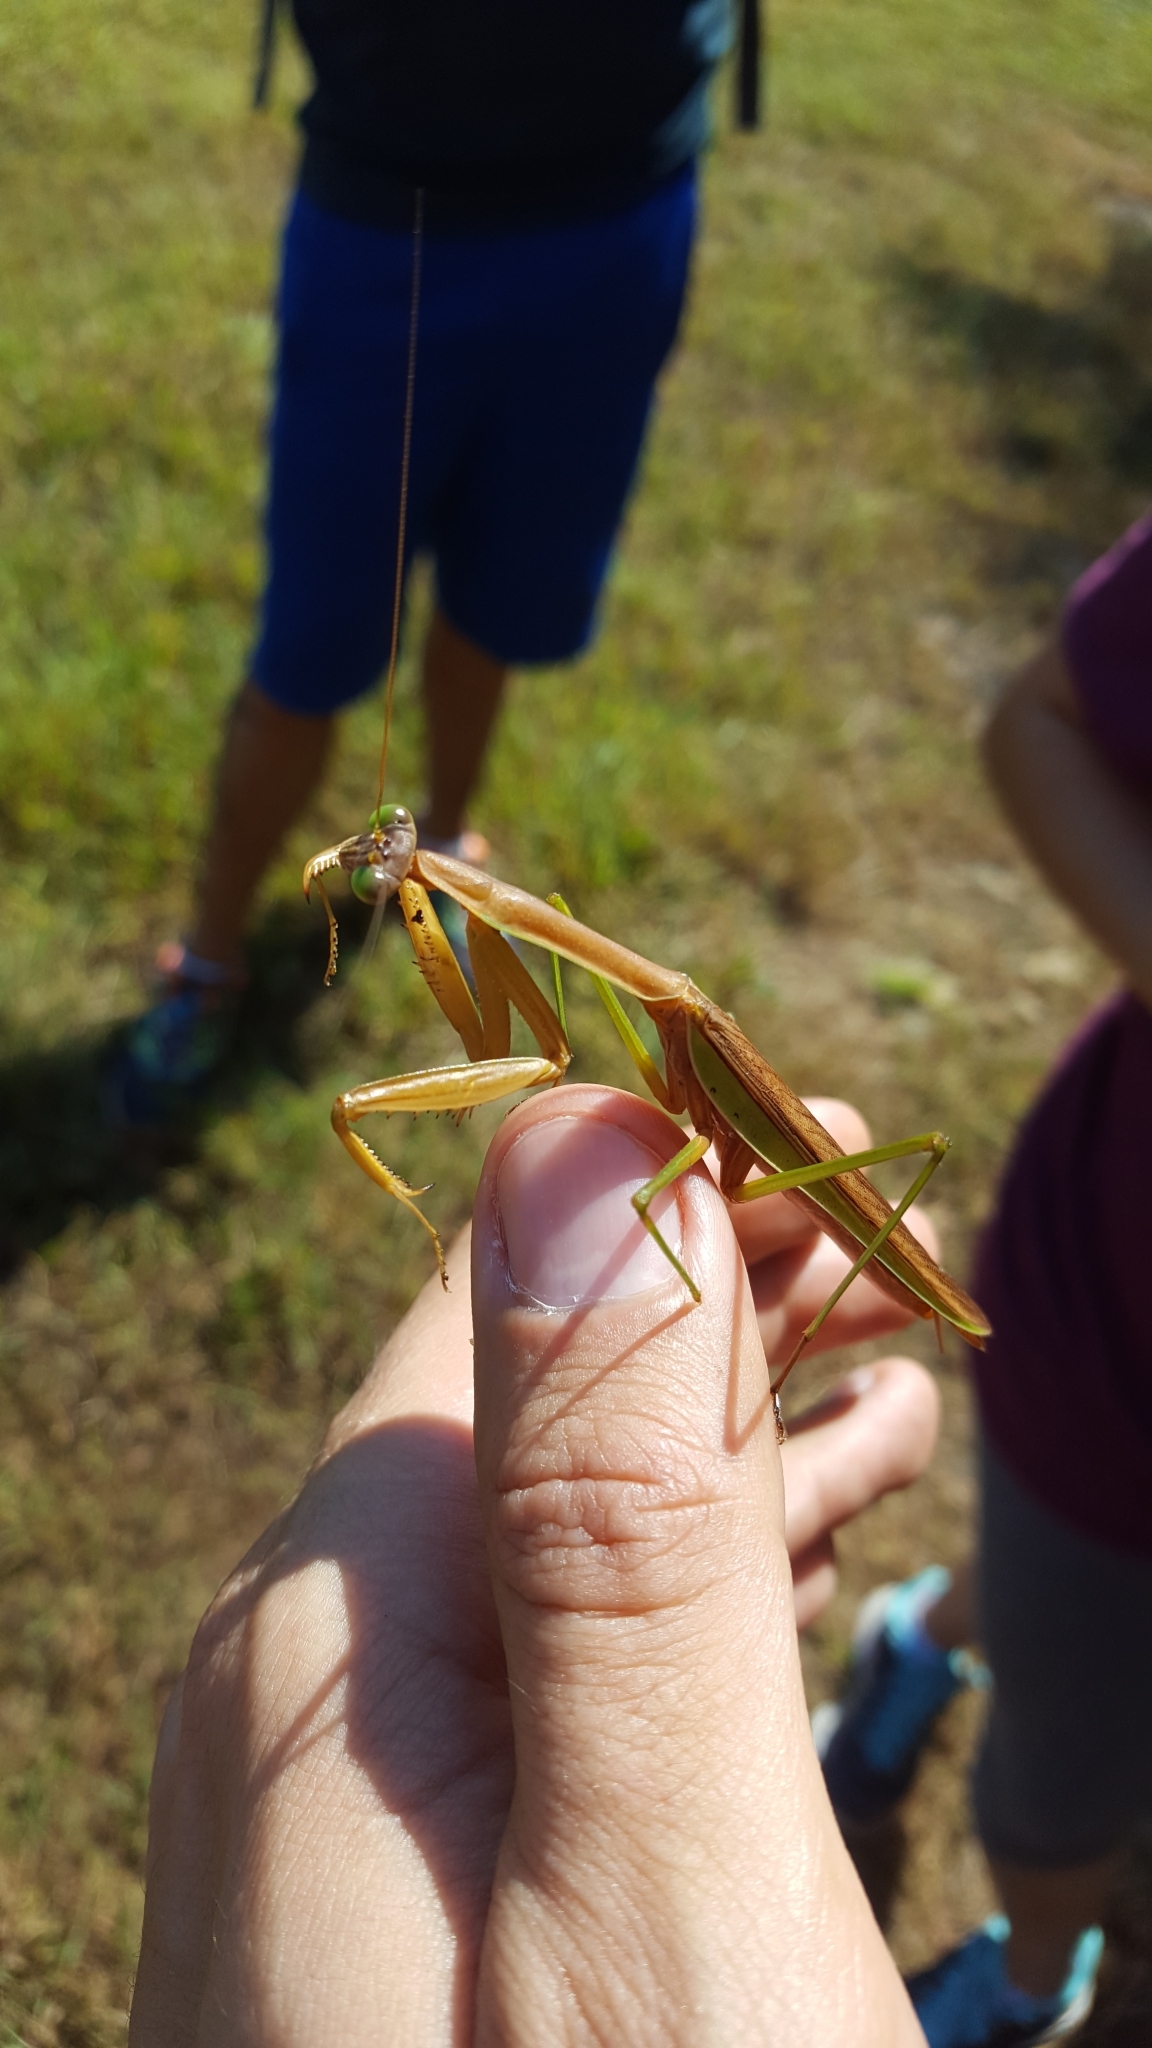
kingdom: Animalia
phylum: Arthropoda
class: Insecta
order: Mantodea
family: Mantidae
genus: Tenodera
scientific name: Tenodera sinensis
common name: Chinese mantis
